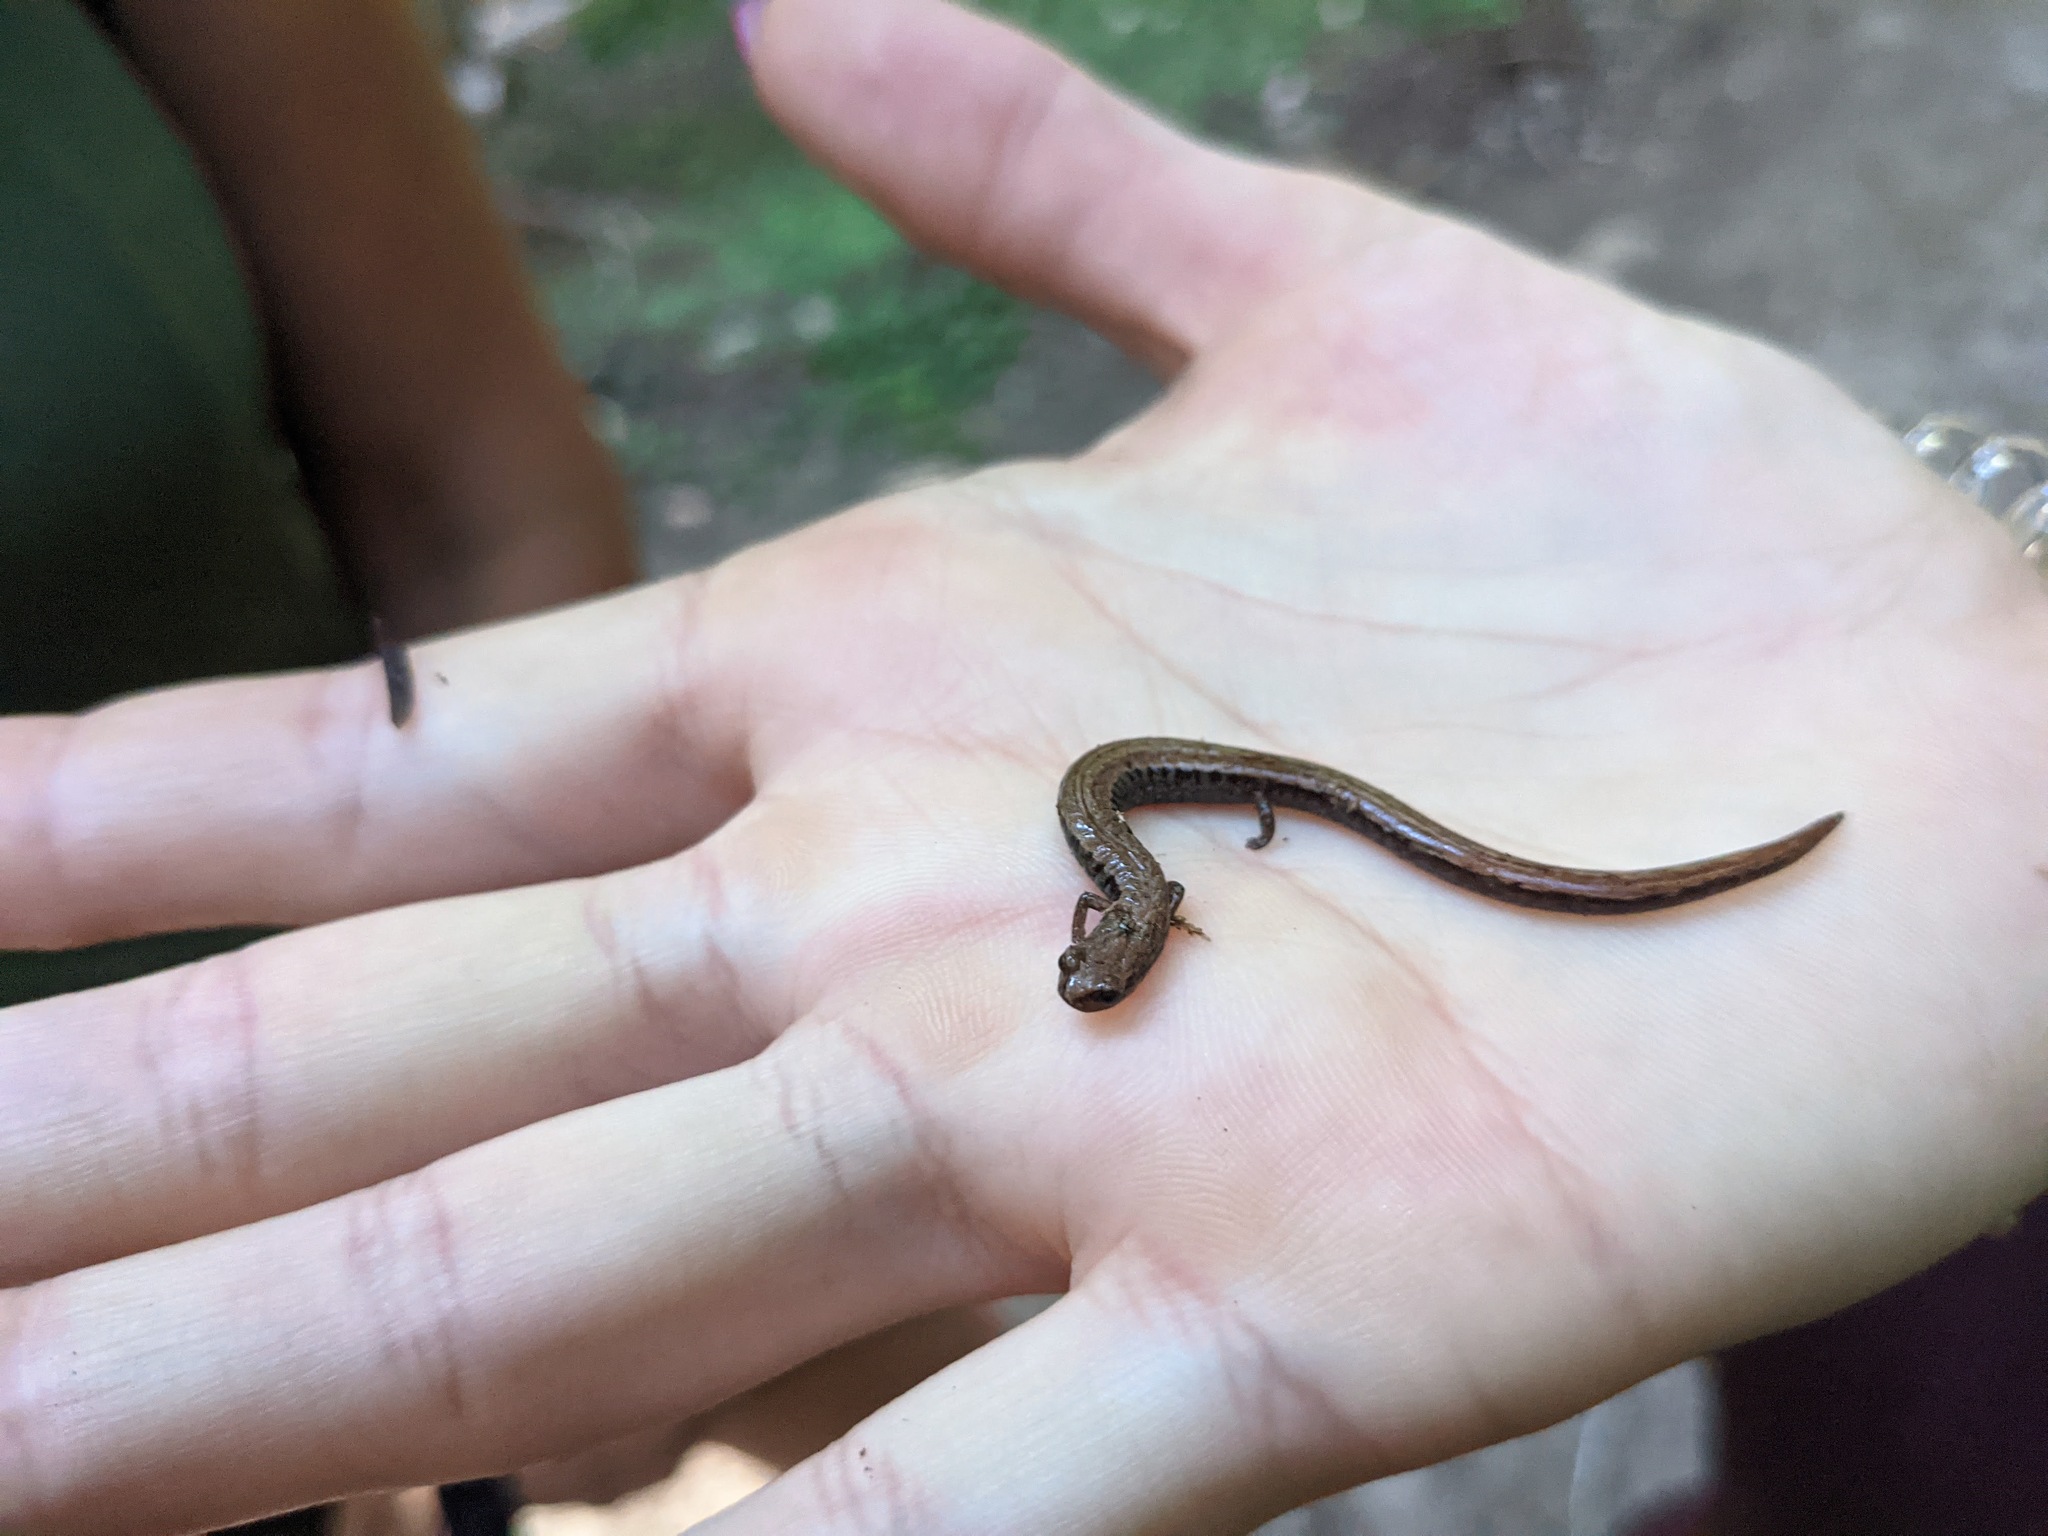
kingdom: Animalia
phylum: Chordata
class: Amphibia
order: Caudata
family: Plethodontidae
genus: Batrachoseps
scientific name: Batrachoseps attenuatus
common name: California slender salamander
